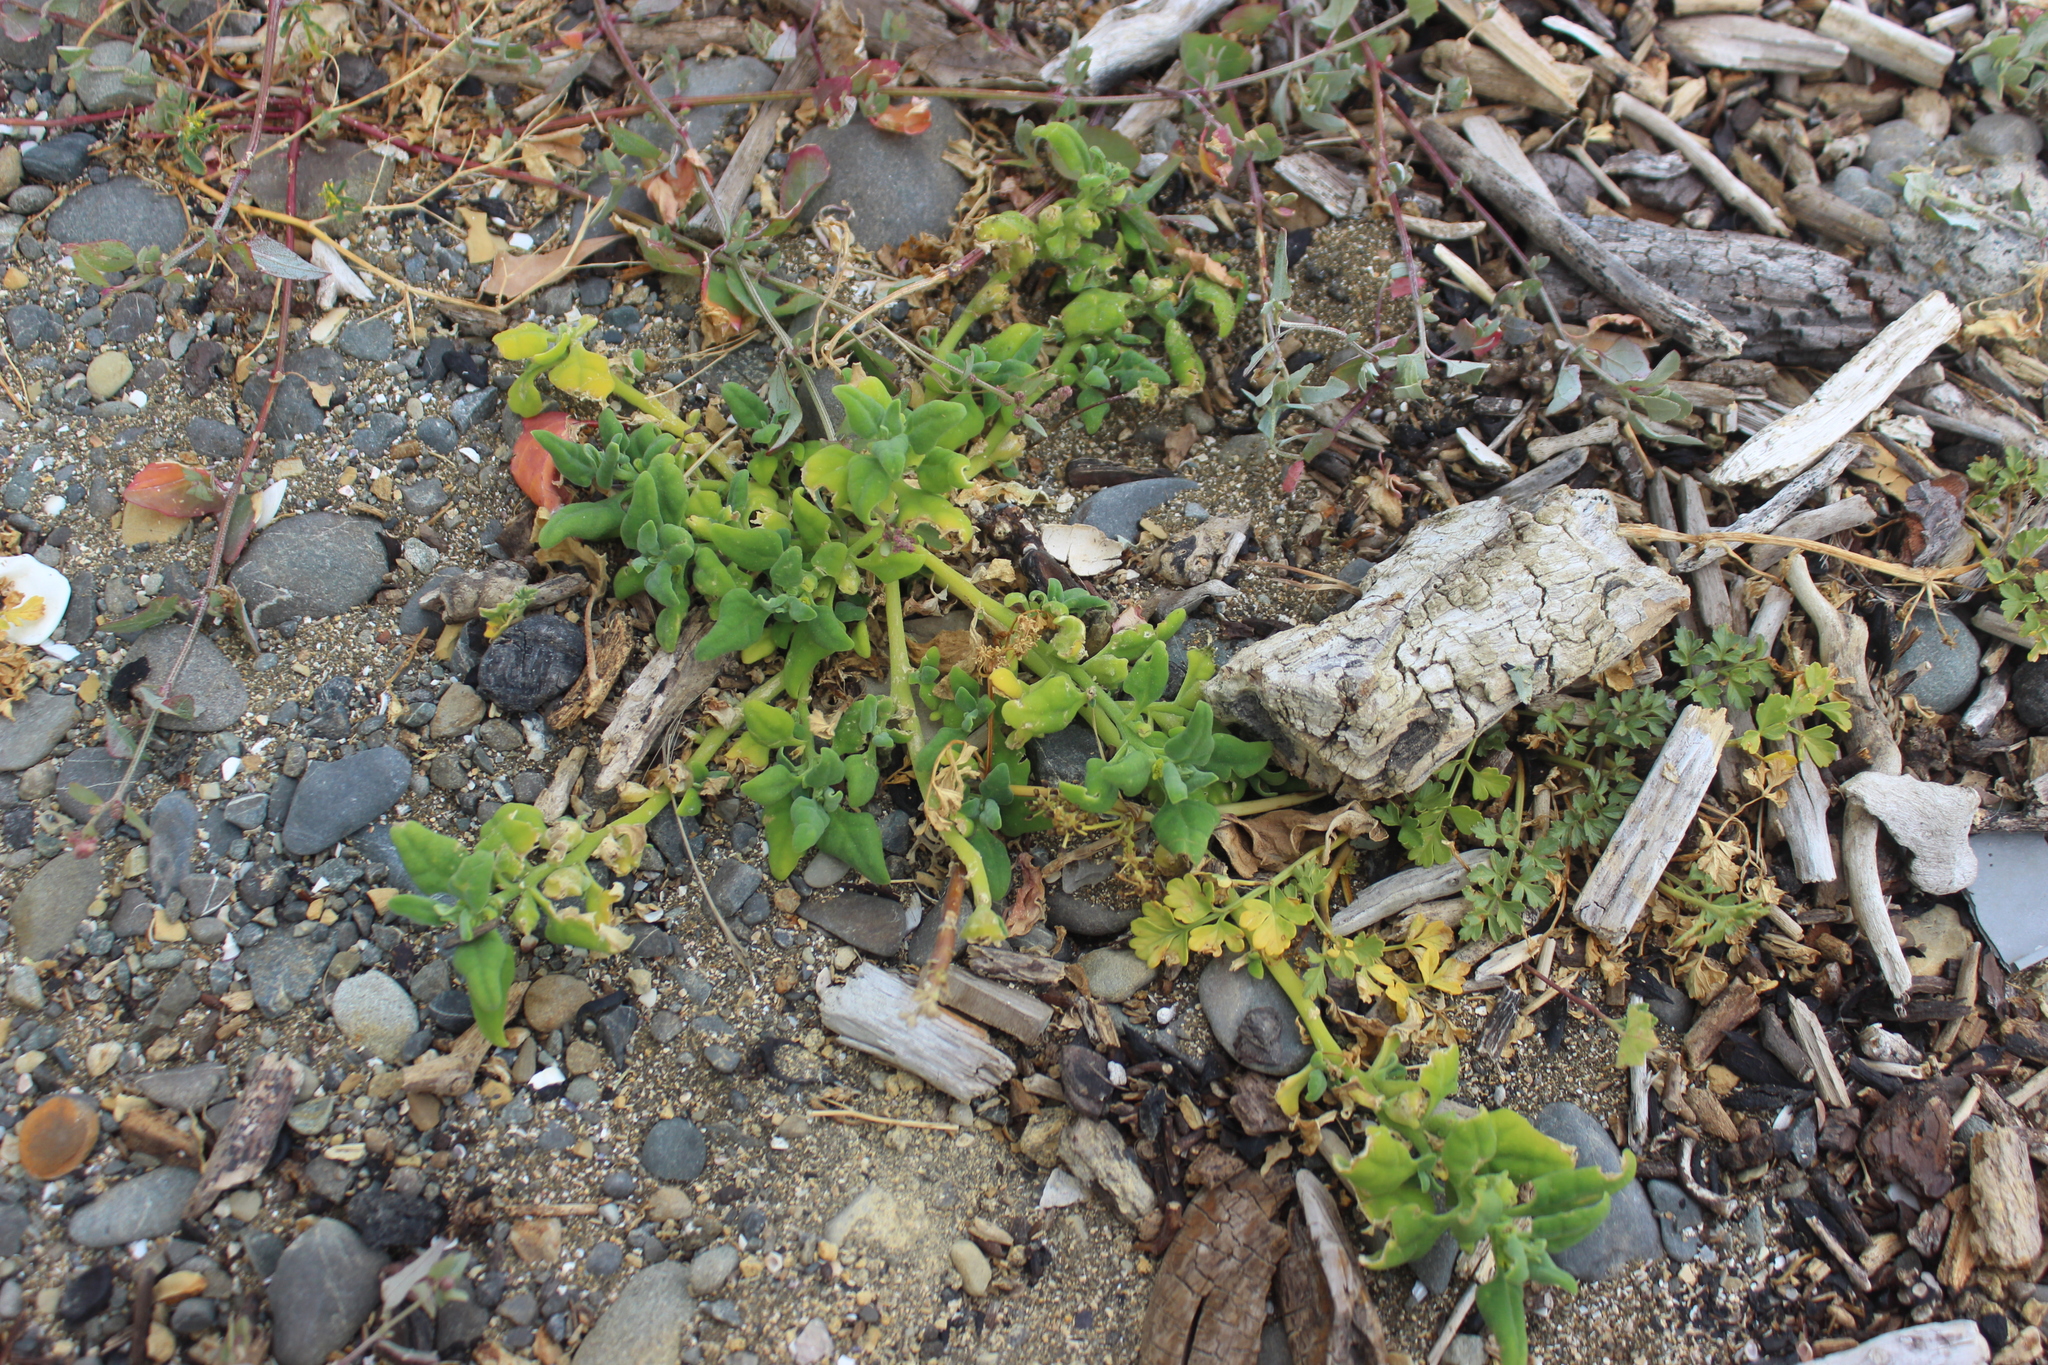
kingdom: Plantae
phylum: Tracheophyta
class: Magnoliopsida
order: Caryophyllales
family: Aizoaceae
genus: Tetragonia
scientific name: Tetragonia tetragonoides
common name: New zealand-spinach
